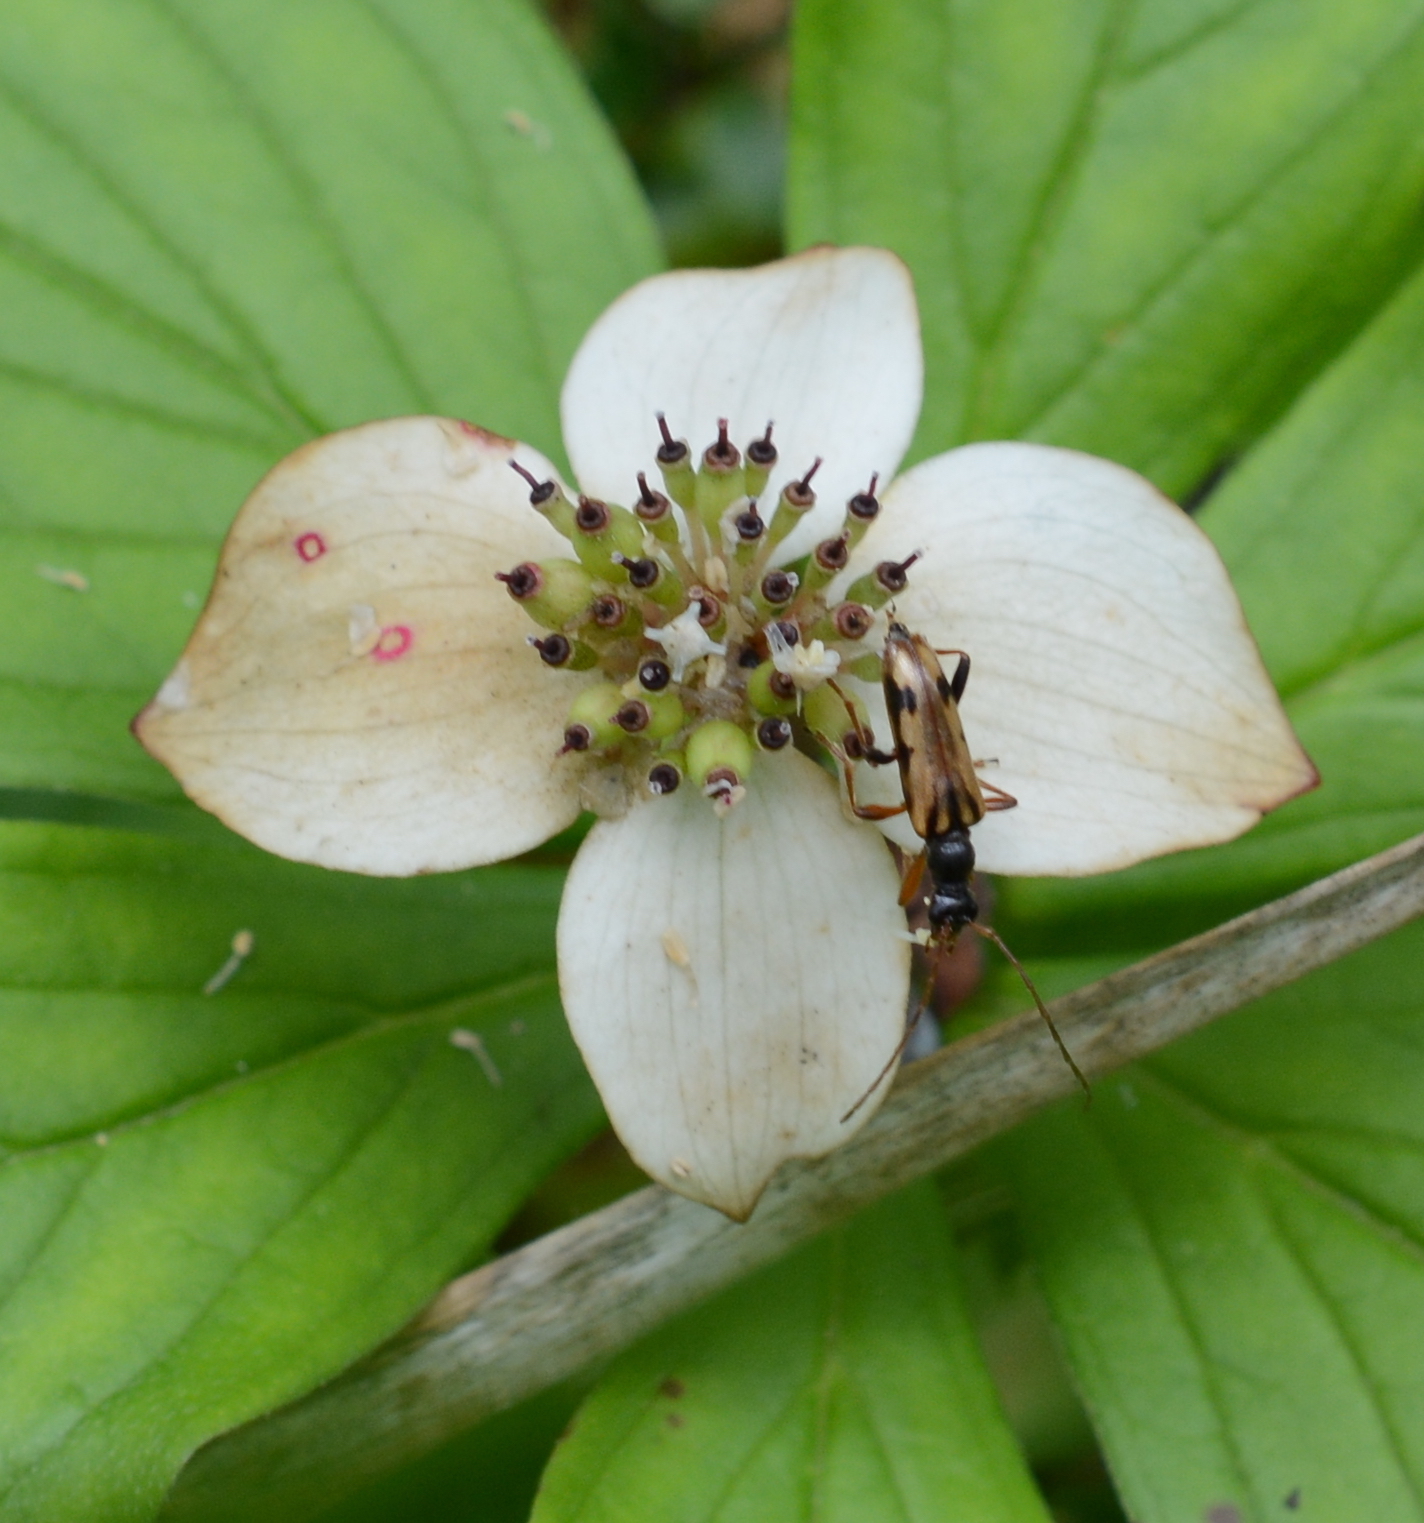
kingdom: Animalia
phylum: Arthropoda
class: Insecta
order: Coleoptera
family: Cerambycidae
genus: Pidonia
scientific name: Pidonia scripta
